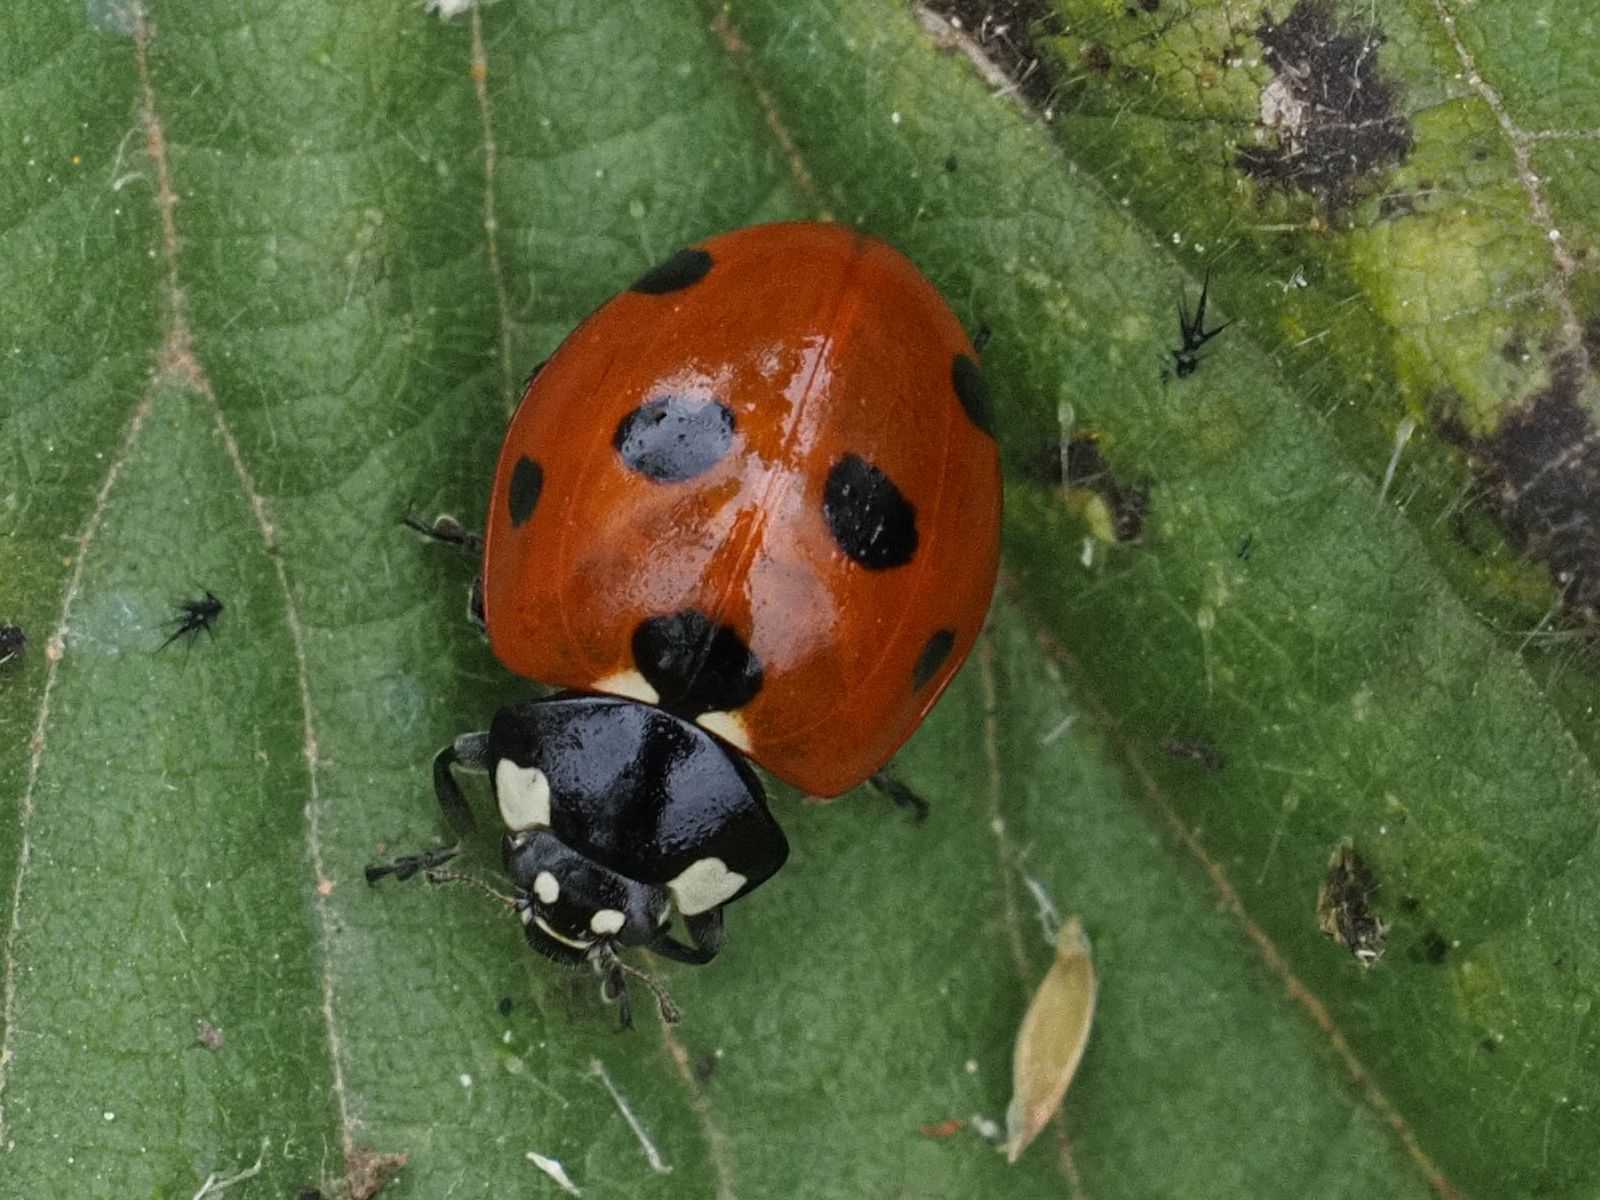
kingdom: Animalia
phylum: Arthropoda
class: Insecta
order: Coleoptera
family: Coccinellidae
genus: Coccinella
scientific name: Coccinella septempunctata
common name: Sevenspotted lady beetle
